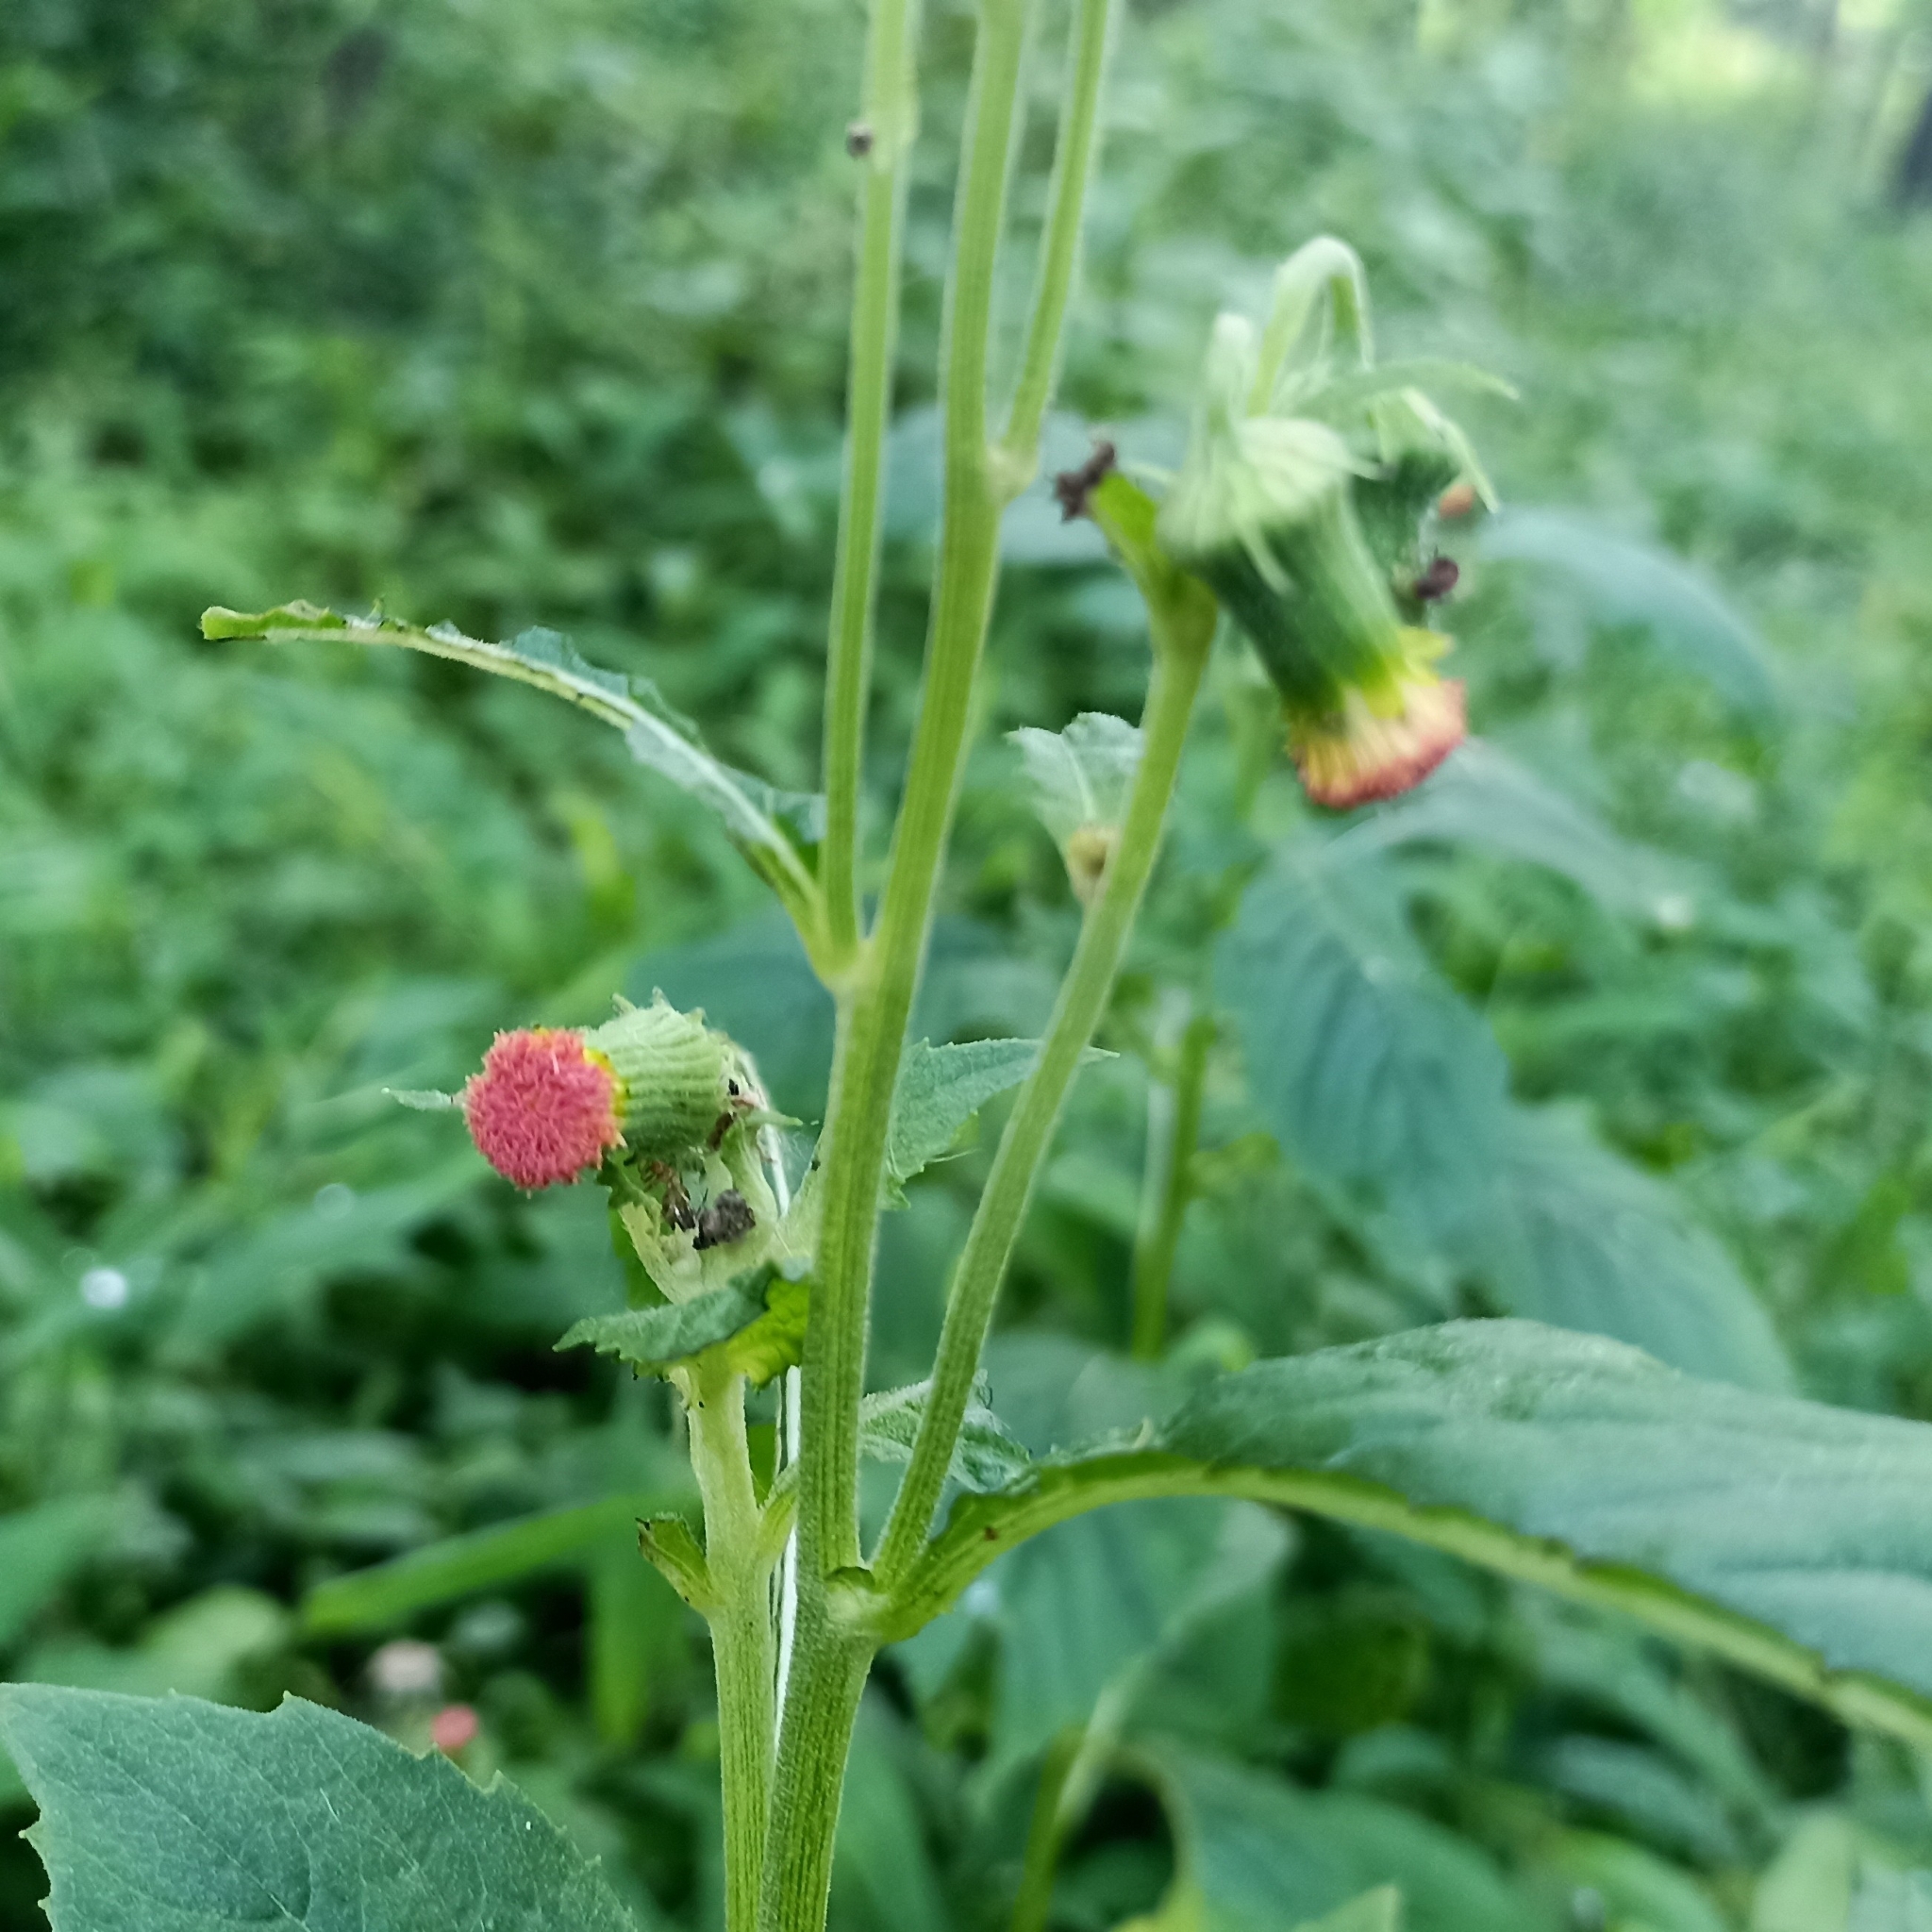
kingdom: Plantae
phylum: Tracheophyta
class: Magnoliopsida
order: Asterales
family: Asteraceae
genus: Crassocephalum
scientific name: Crassocephalum crepidioides
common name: Redflower ragleaf
